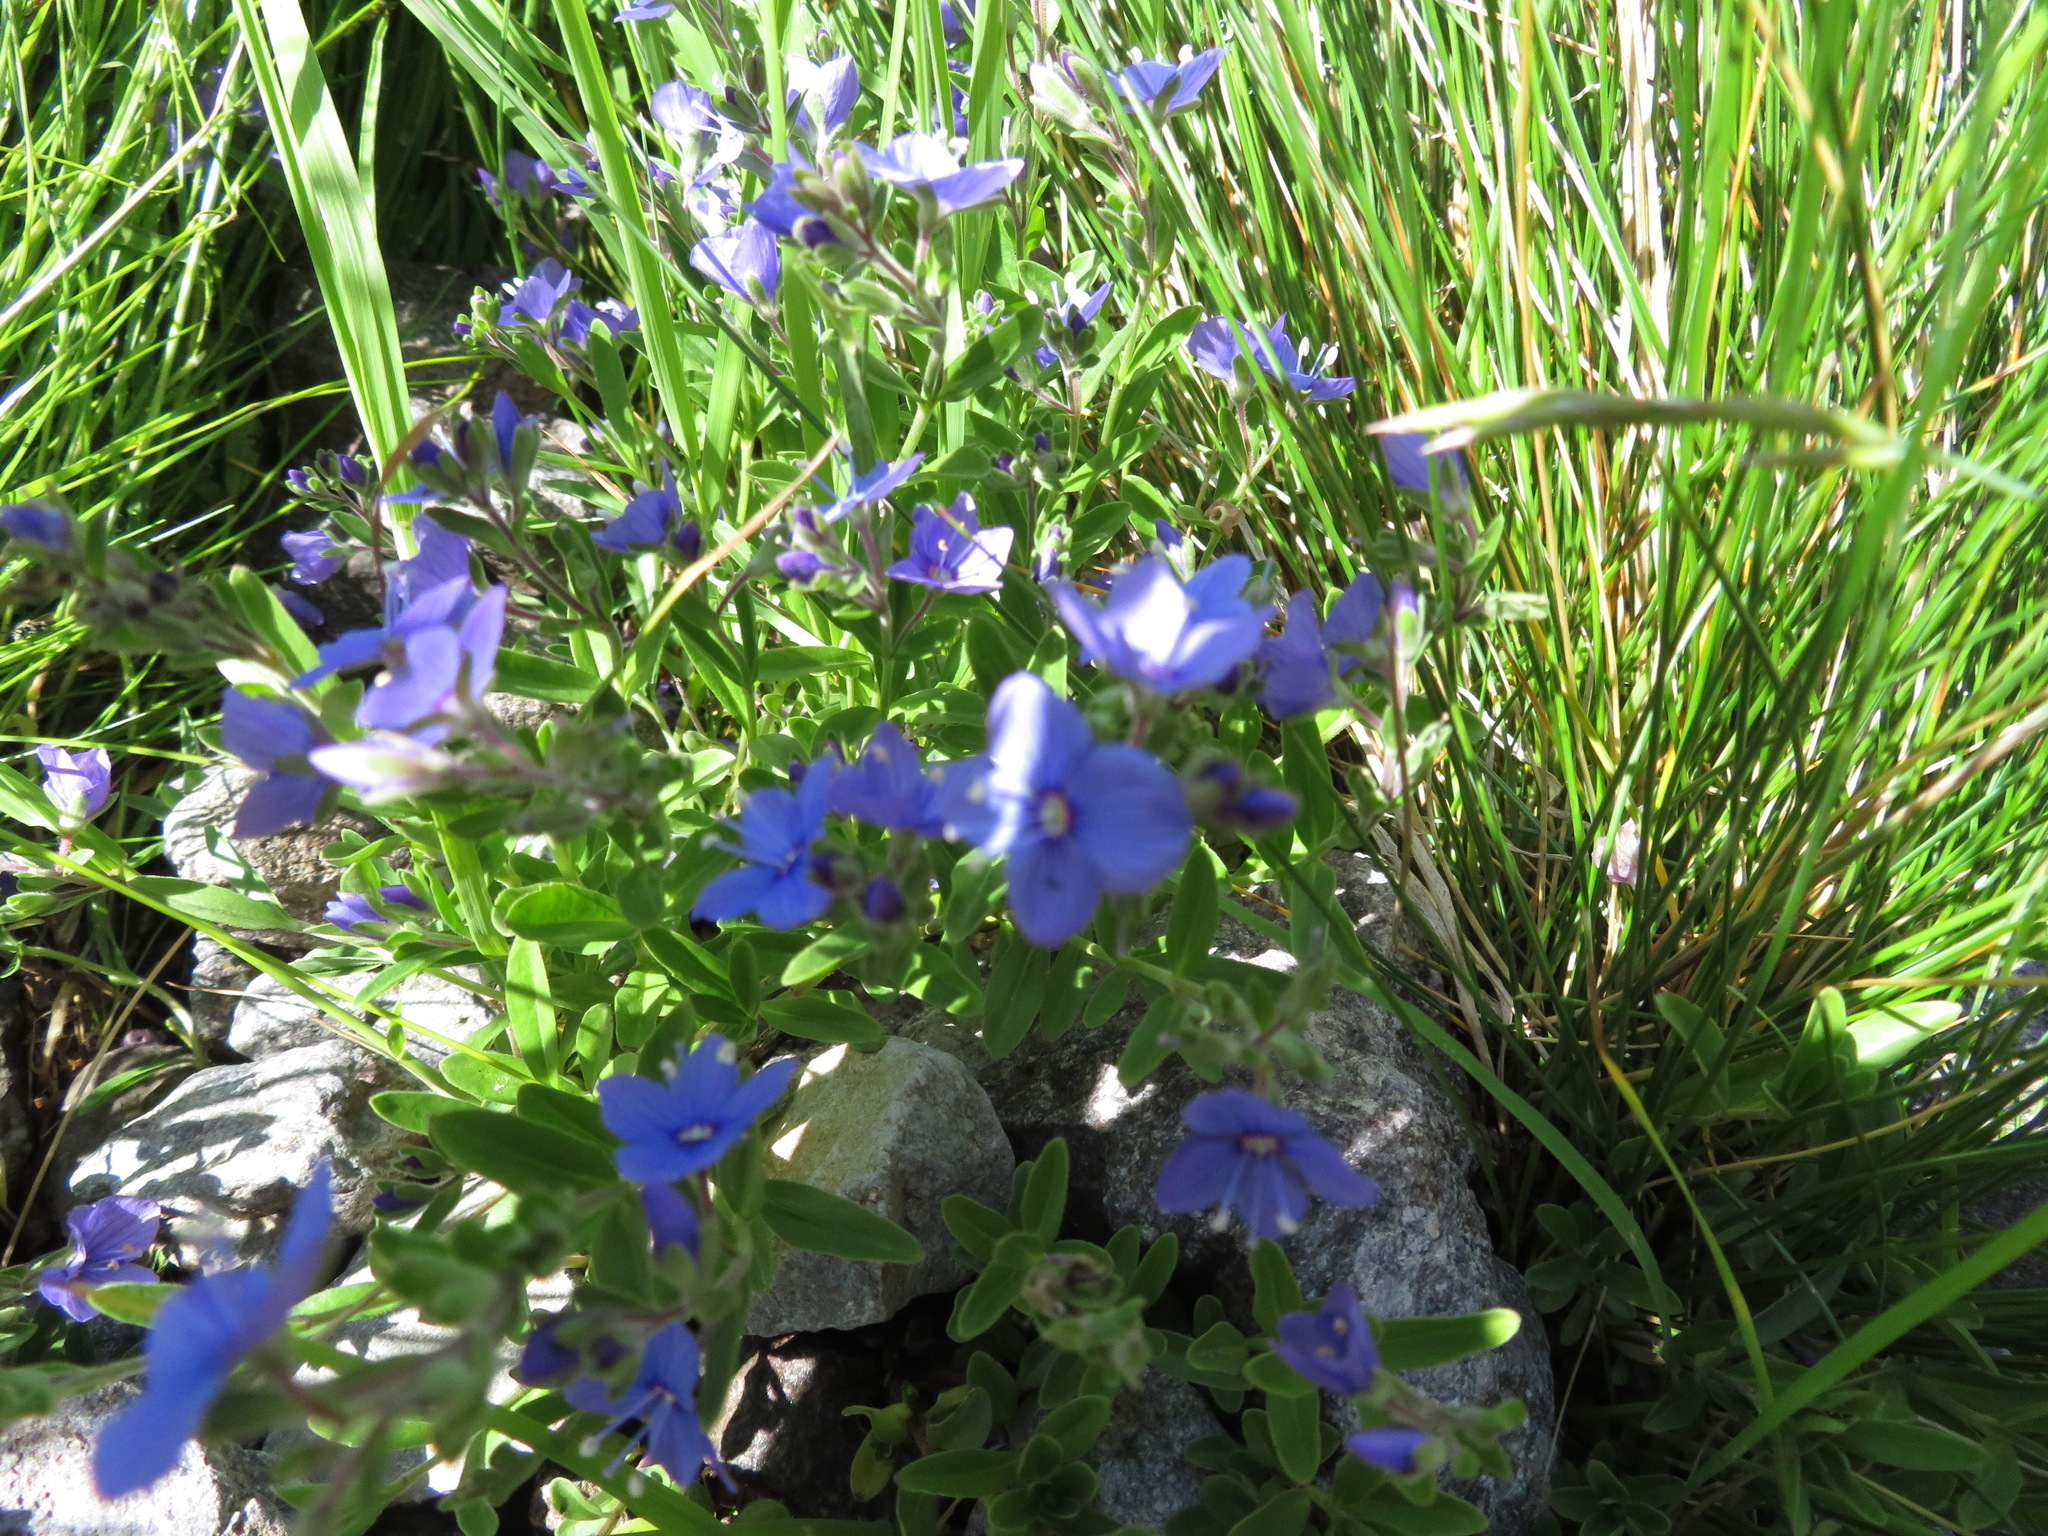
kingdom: Plantae
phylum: Tracheophyta
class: Magnoliopsida
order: Lamiales
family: Plantaginaceae
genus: Veronica
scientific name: Veronica fruticans
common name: Rock speedwell
